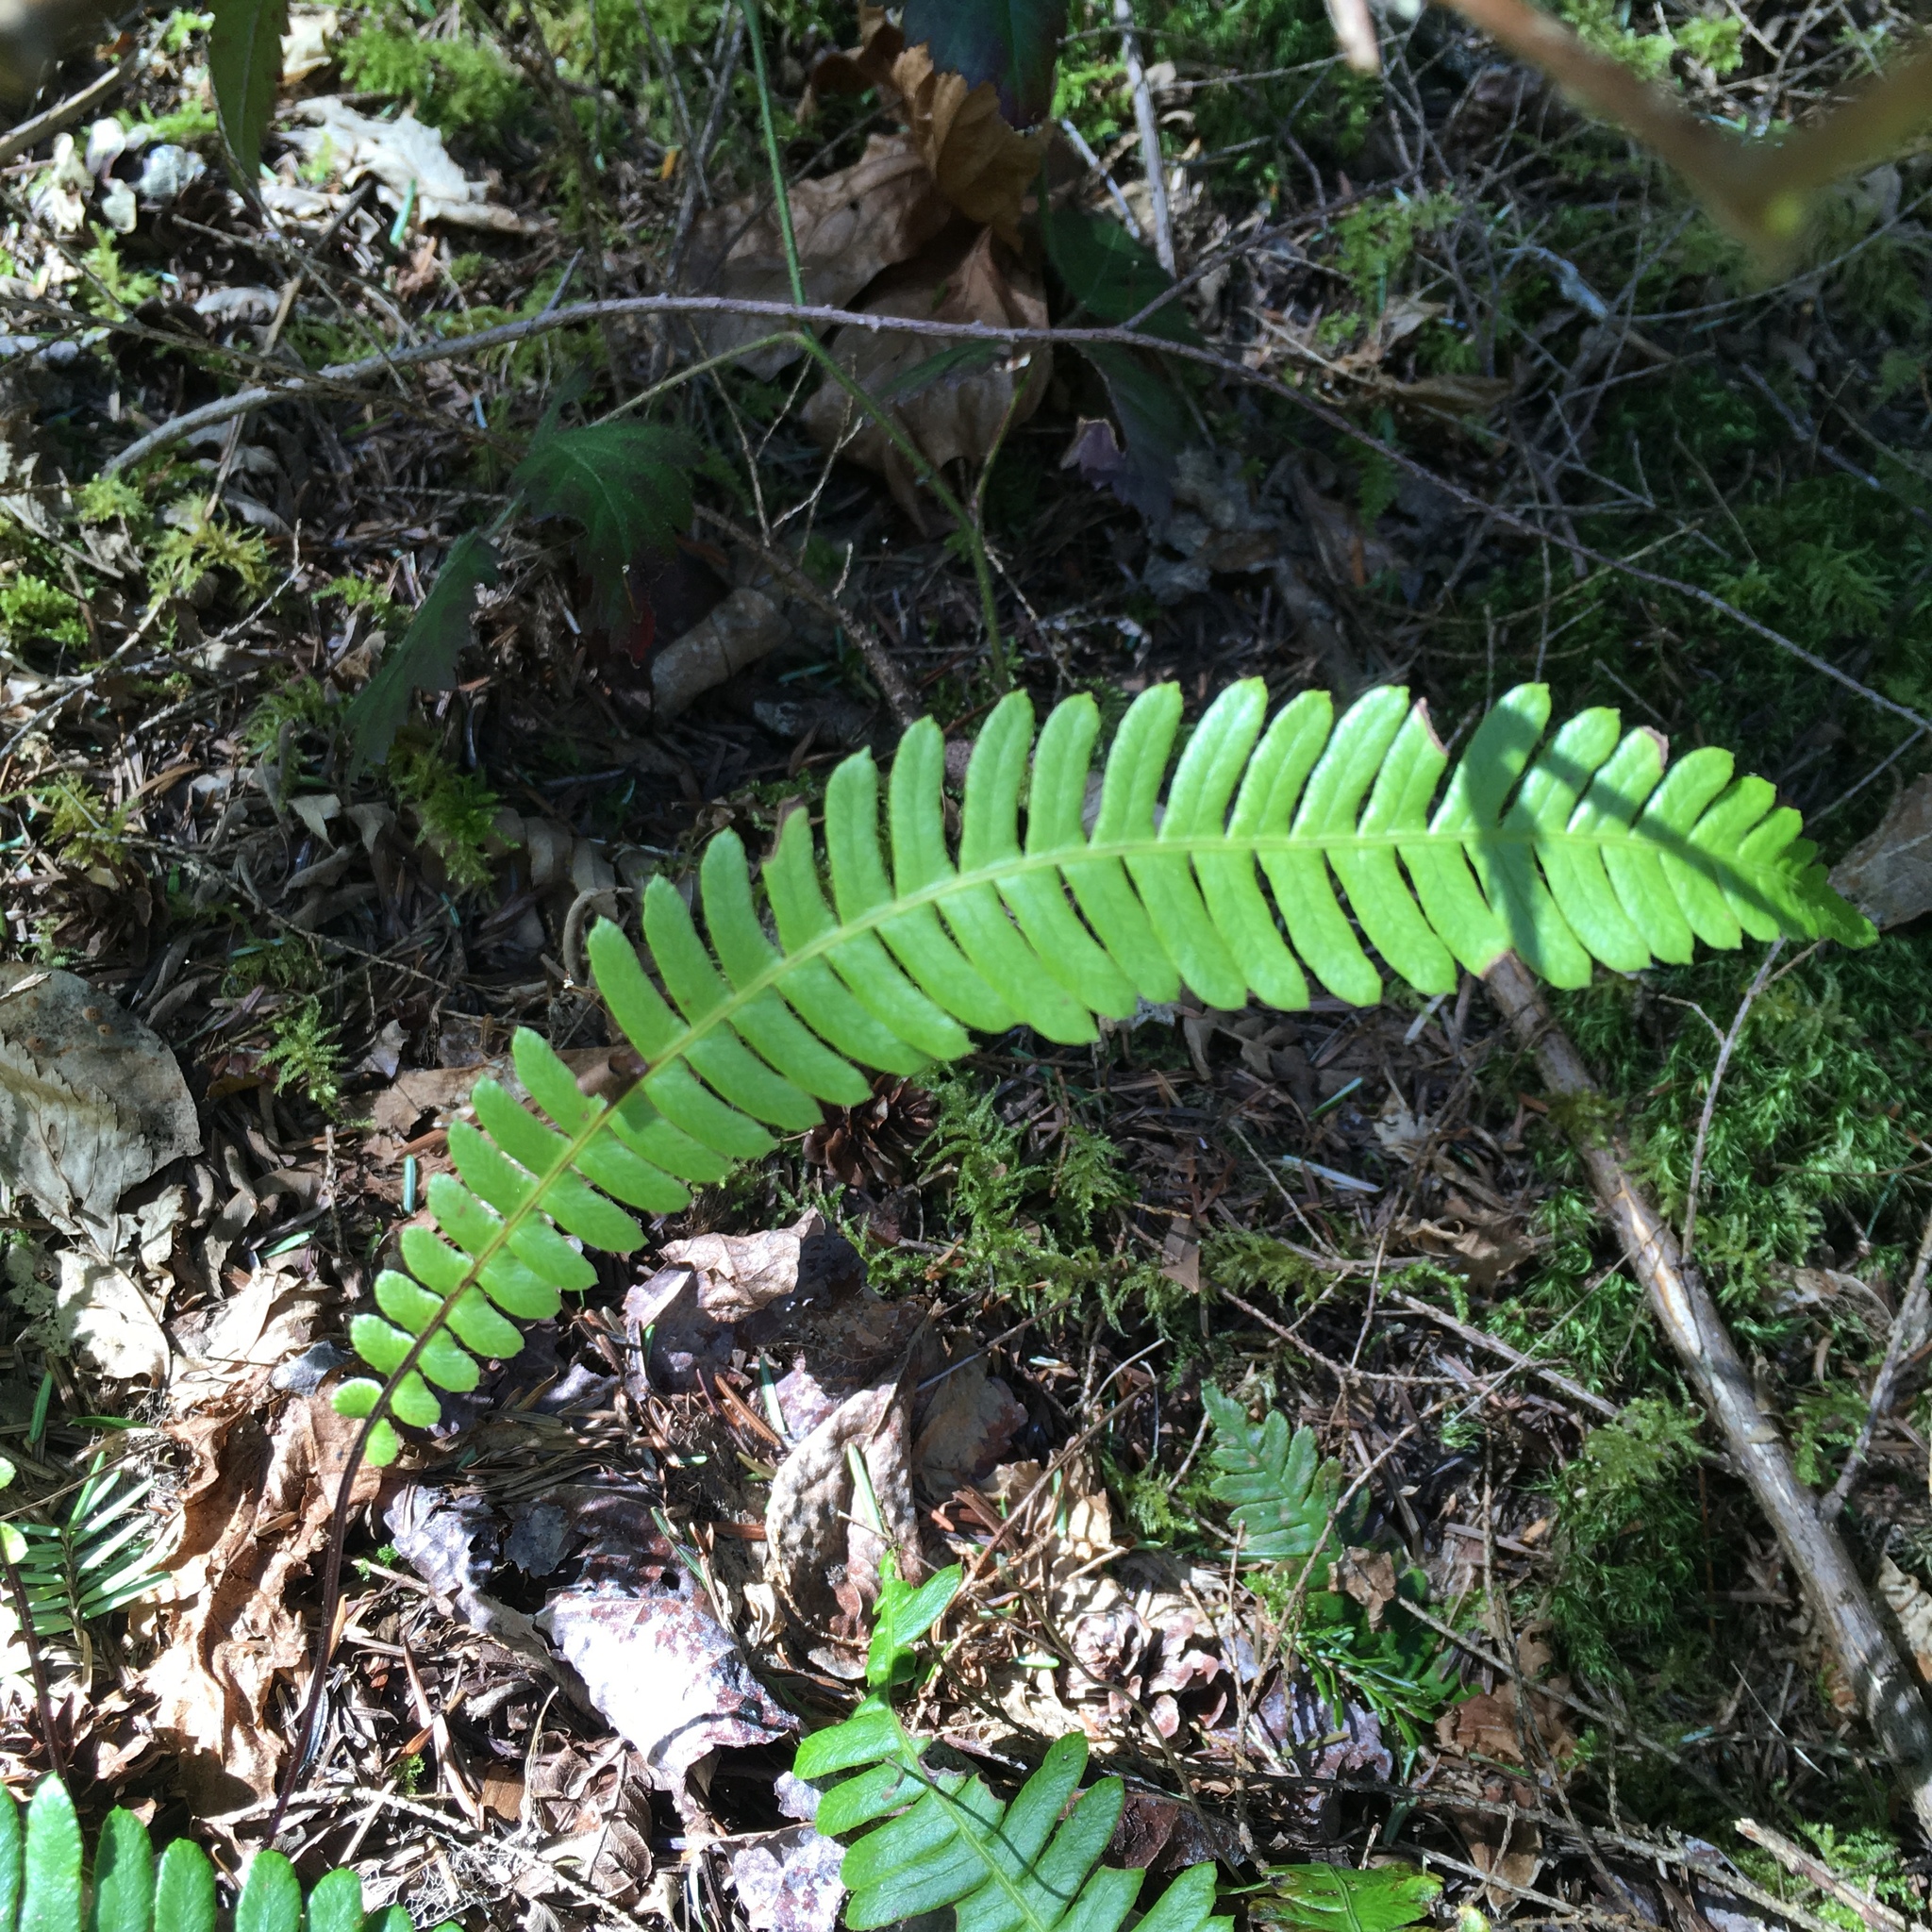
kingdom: Plantae
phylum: Tracheophyta
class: Polypodiopsida
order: Polypodiales
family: Blechnaceae
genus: Struthiopteris
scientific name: Struthiopteris spicant
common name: Deer fern
